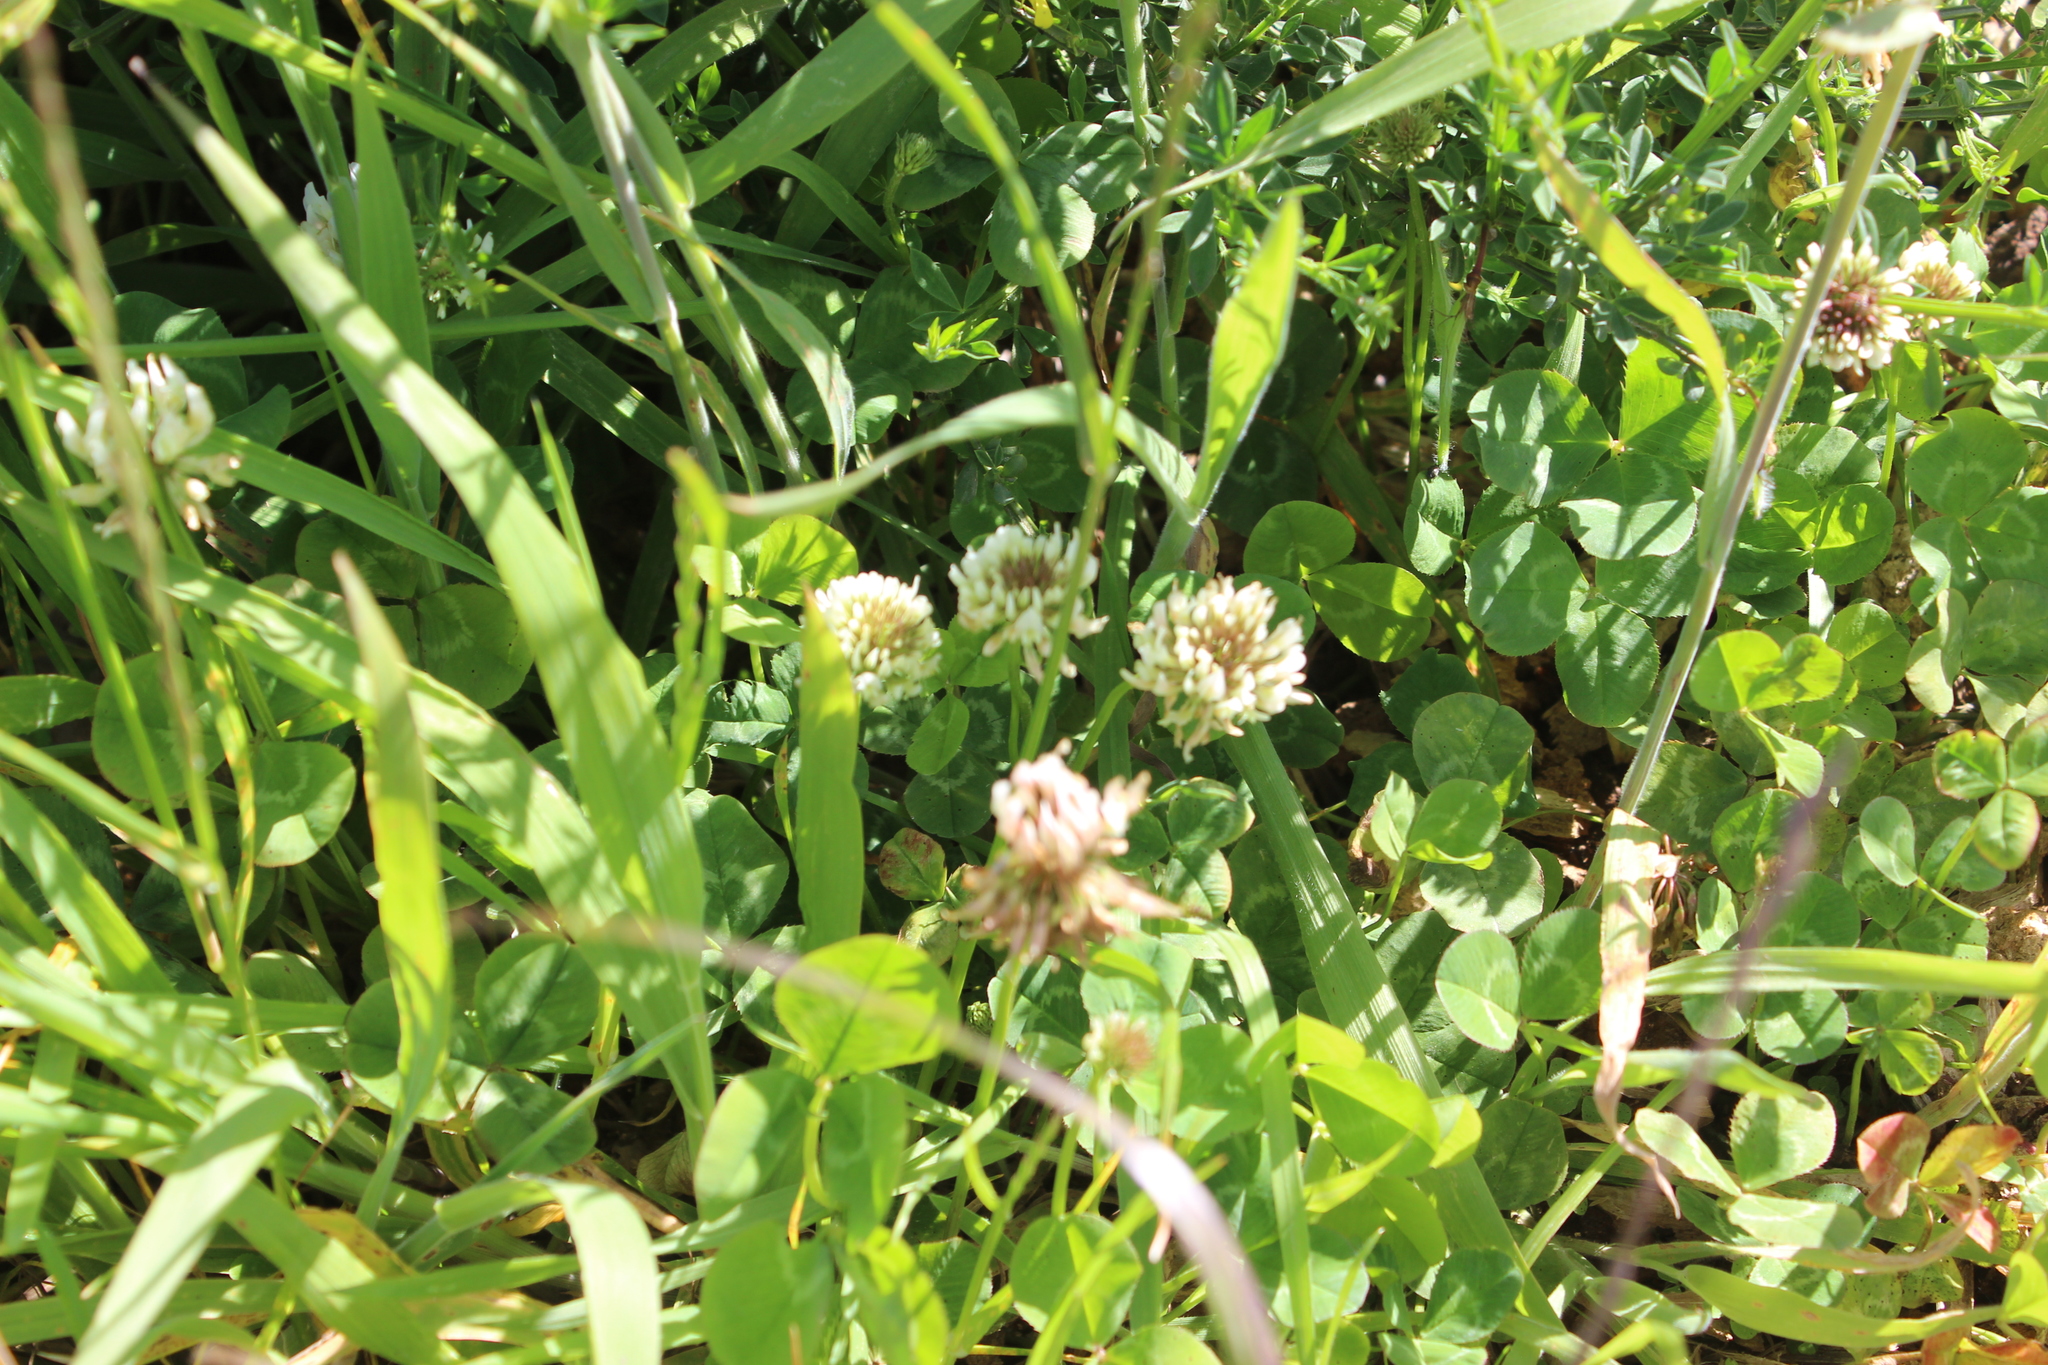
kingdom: Plantae
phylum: Tracheophyta
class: Magnoliopsida
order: Fabales
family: Fabaceae
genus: Trifolium
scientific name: Trifolium repens
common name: White clover
